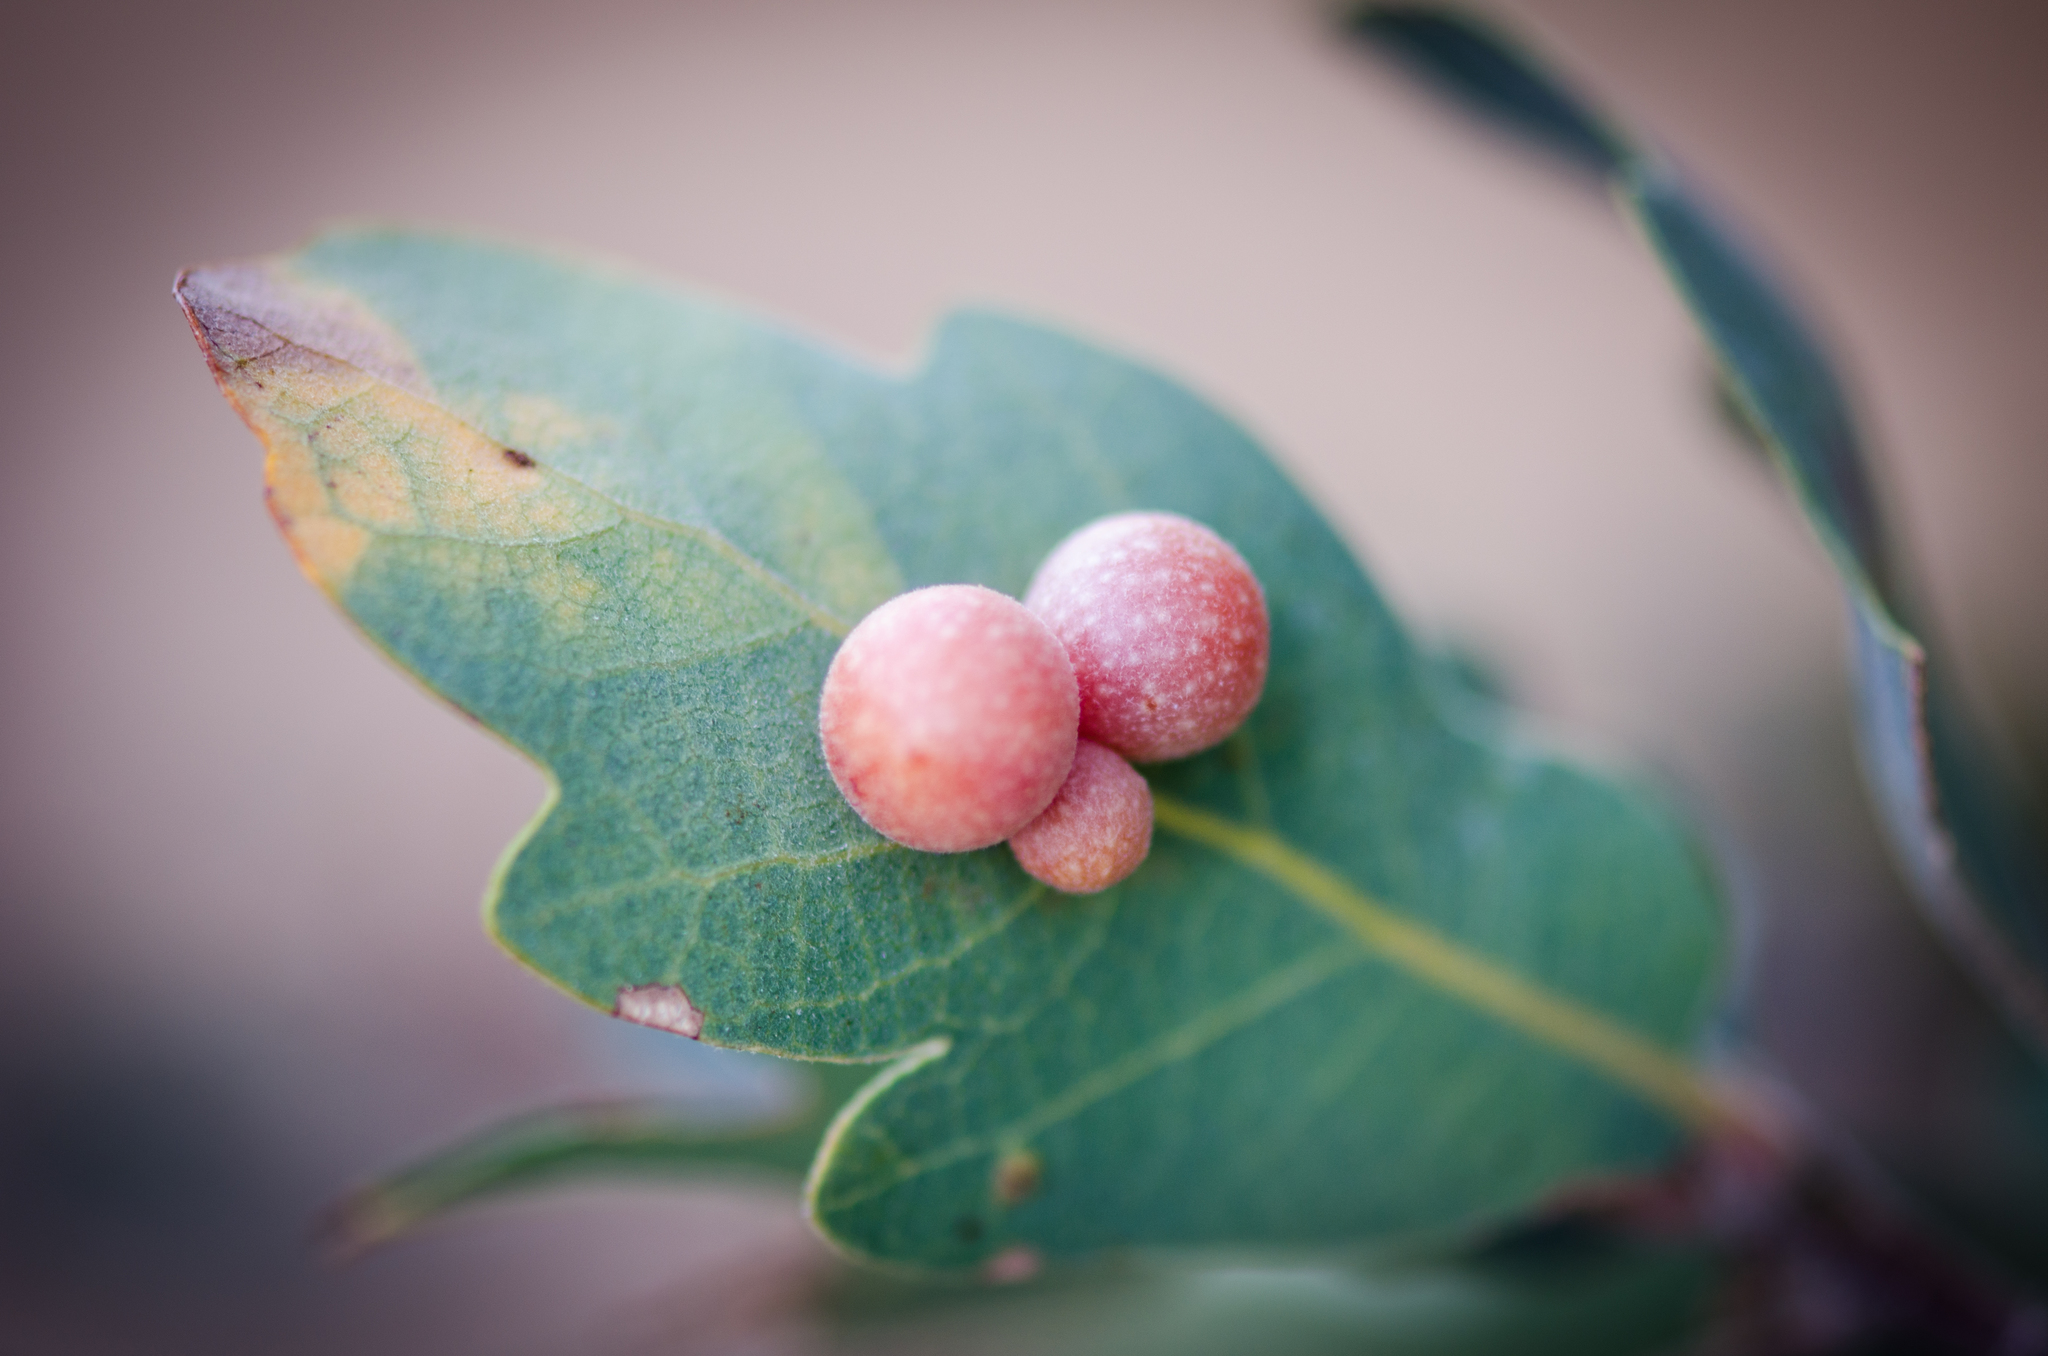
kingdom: Animalia
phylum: Arthropoda
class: Insecta
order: Hymenoptera
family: Cynipidae
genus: Andricus
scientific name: Andricus
